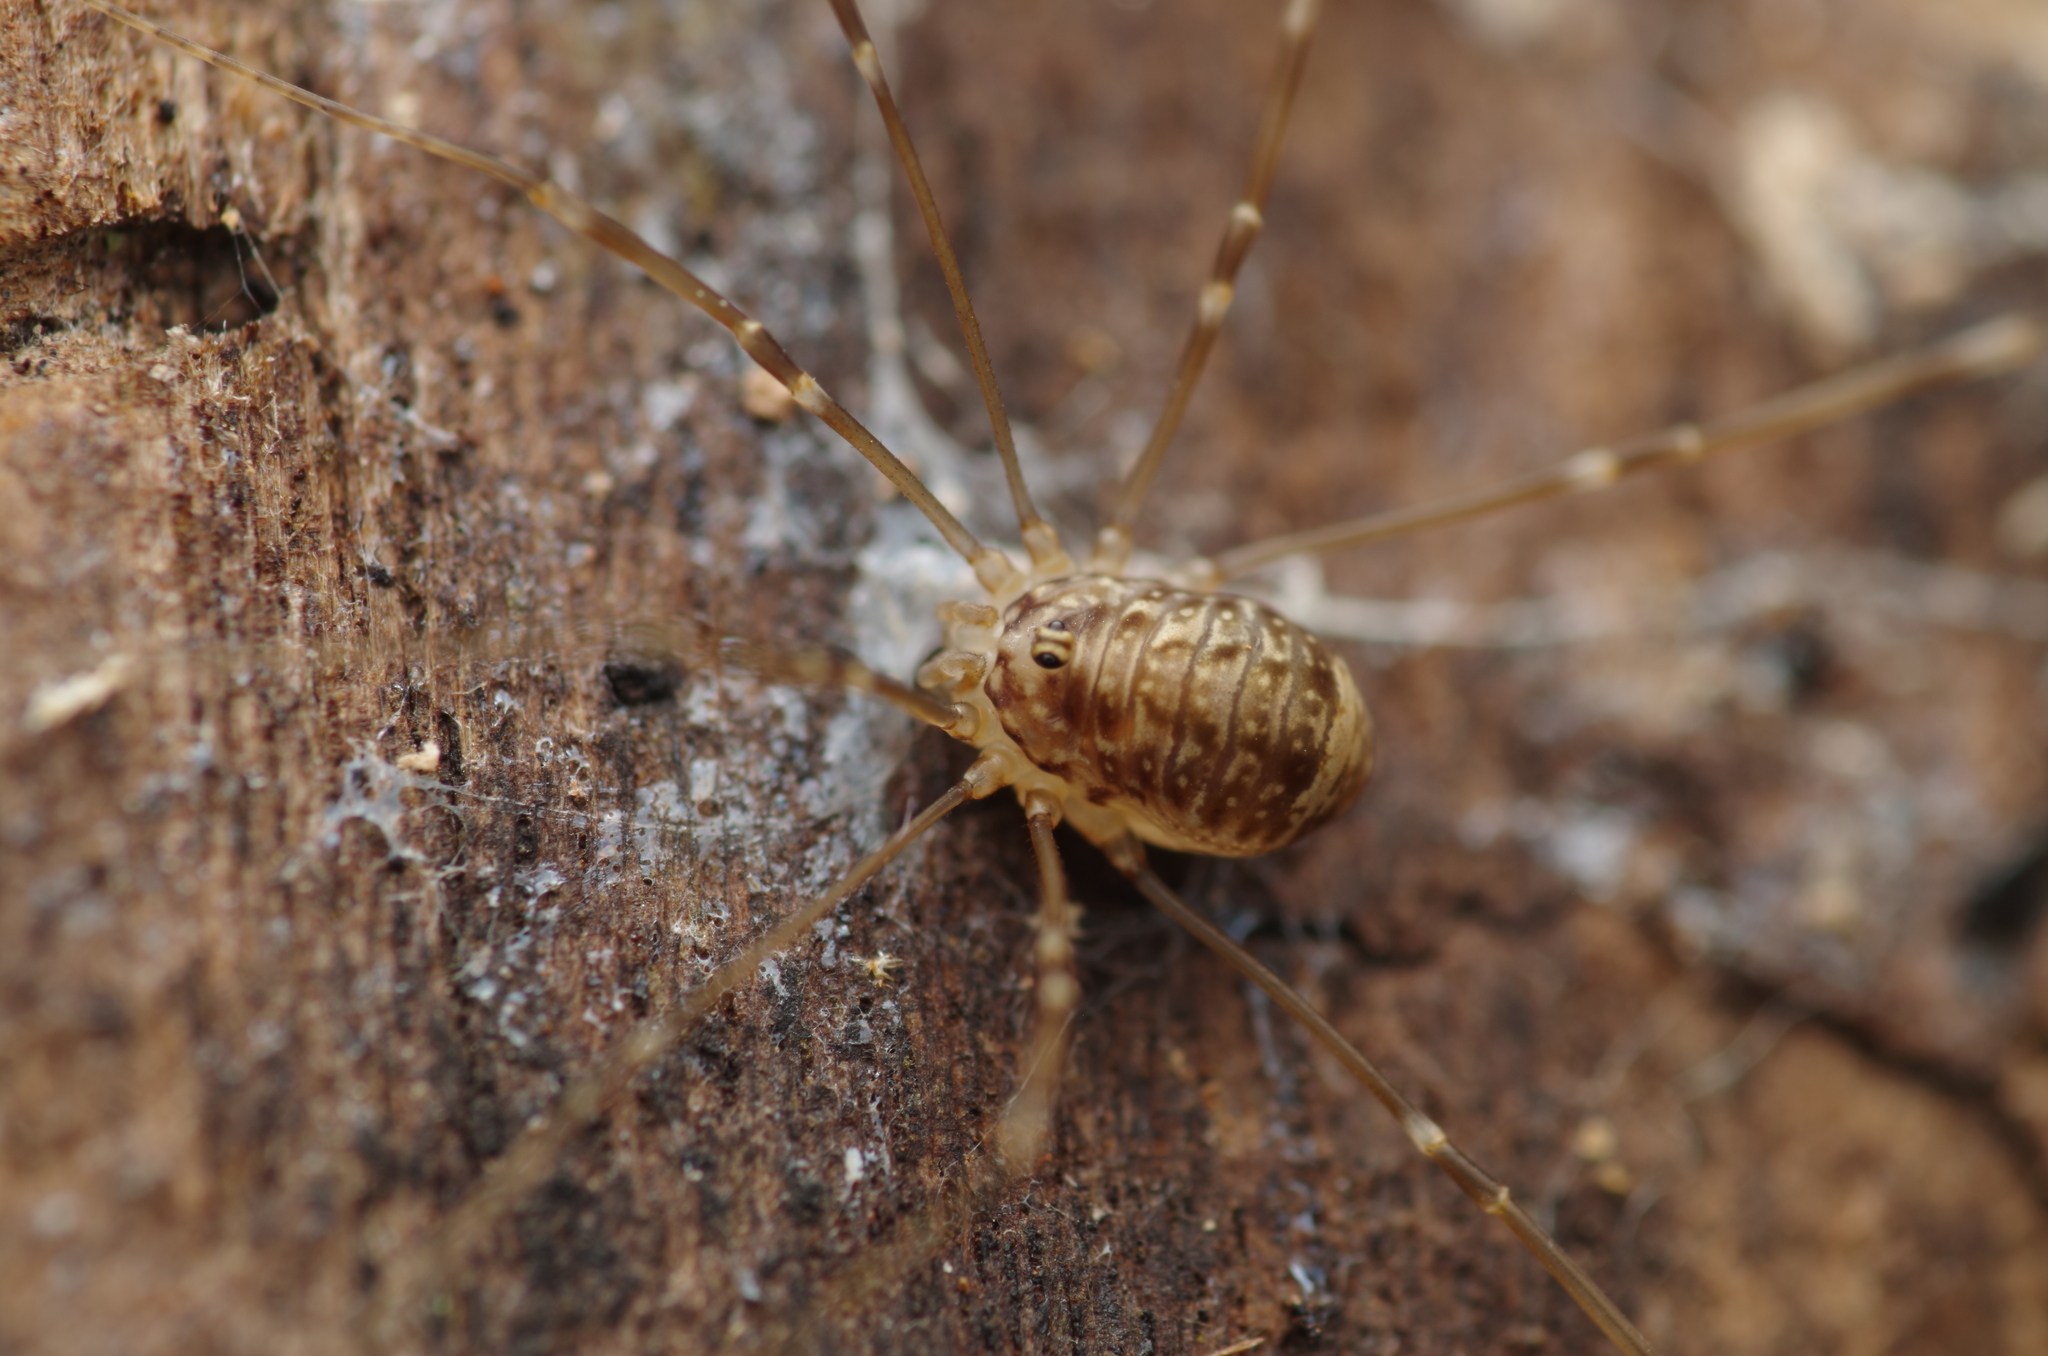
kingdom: Animalia
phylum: Arthropoda
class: Arachnida
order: Opiliones
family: Sclerosomatidae
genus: Leiobunum
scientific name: Leiobunum blackwalli
